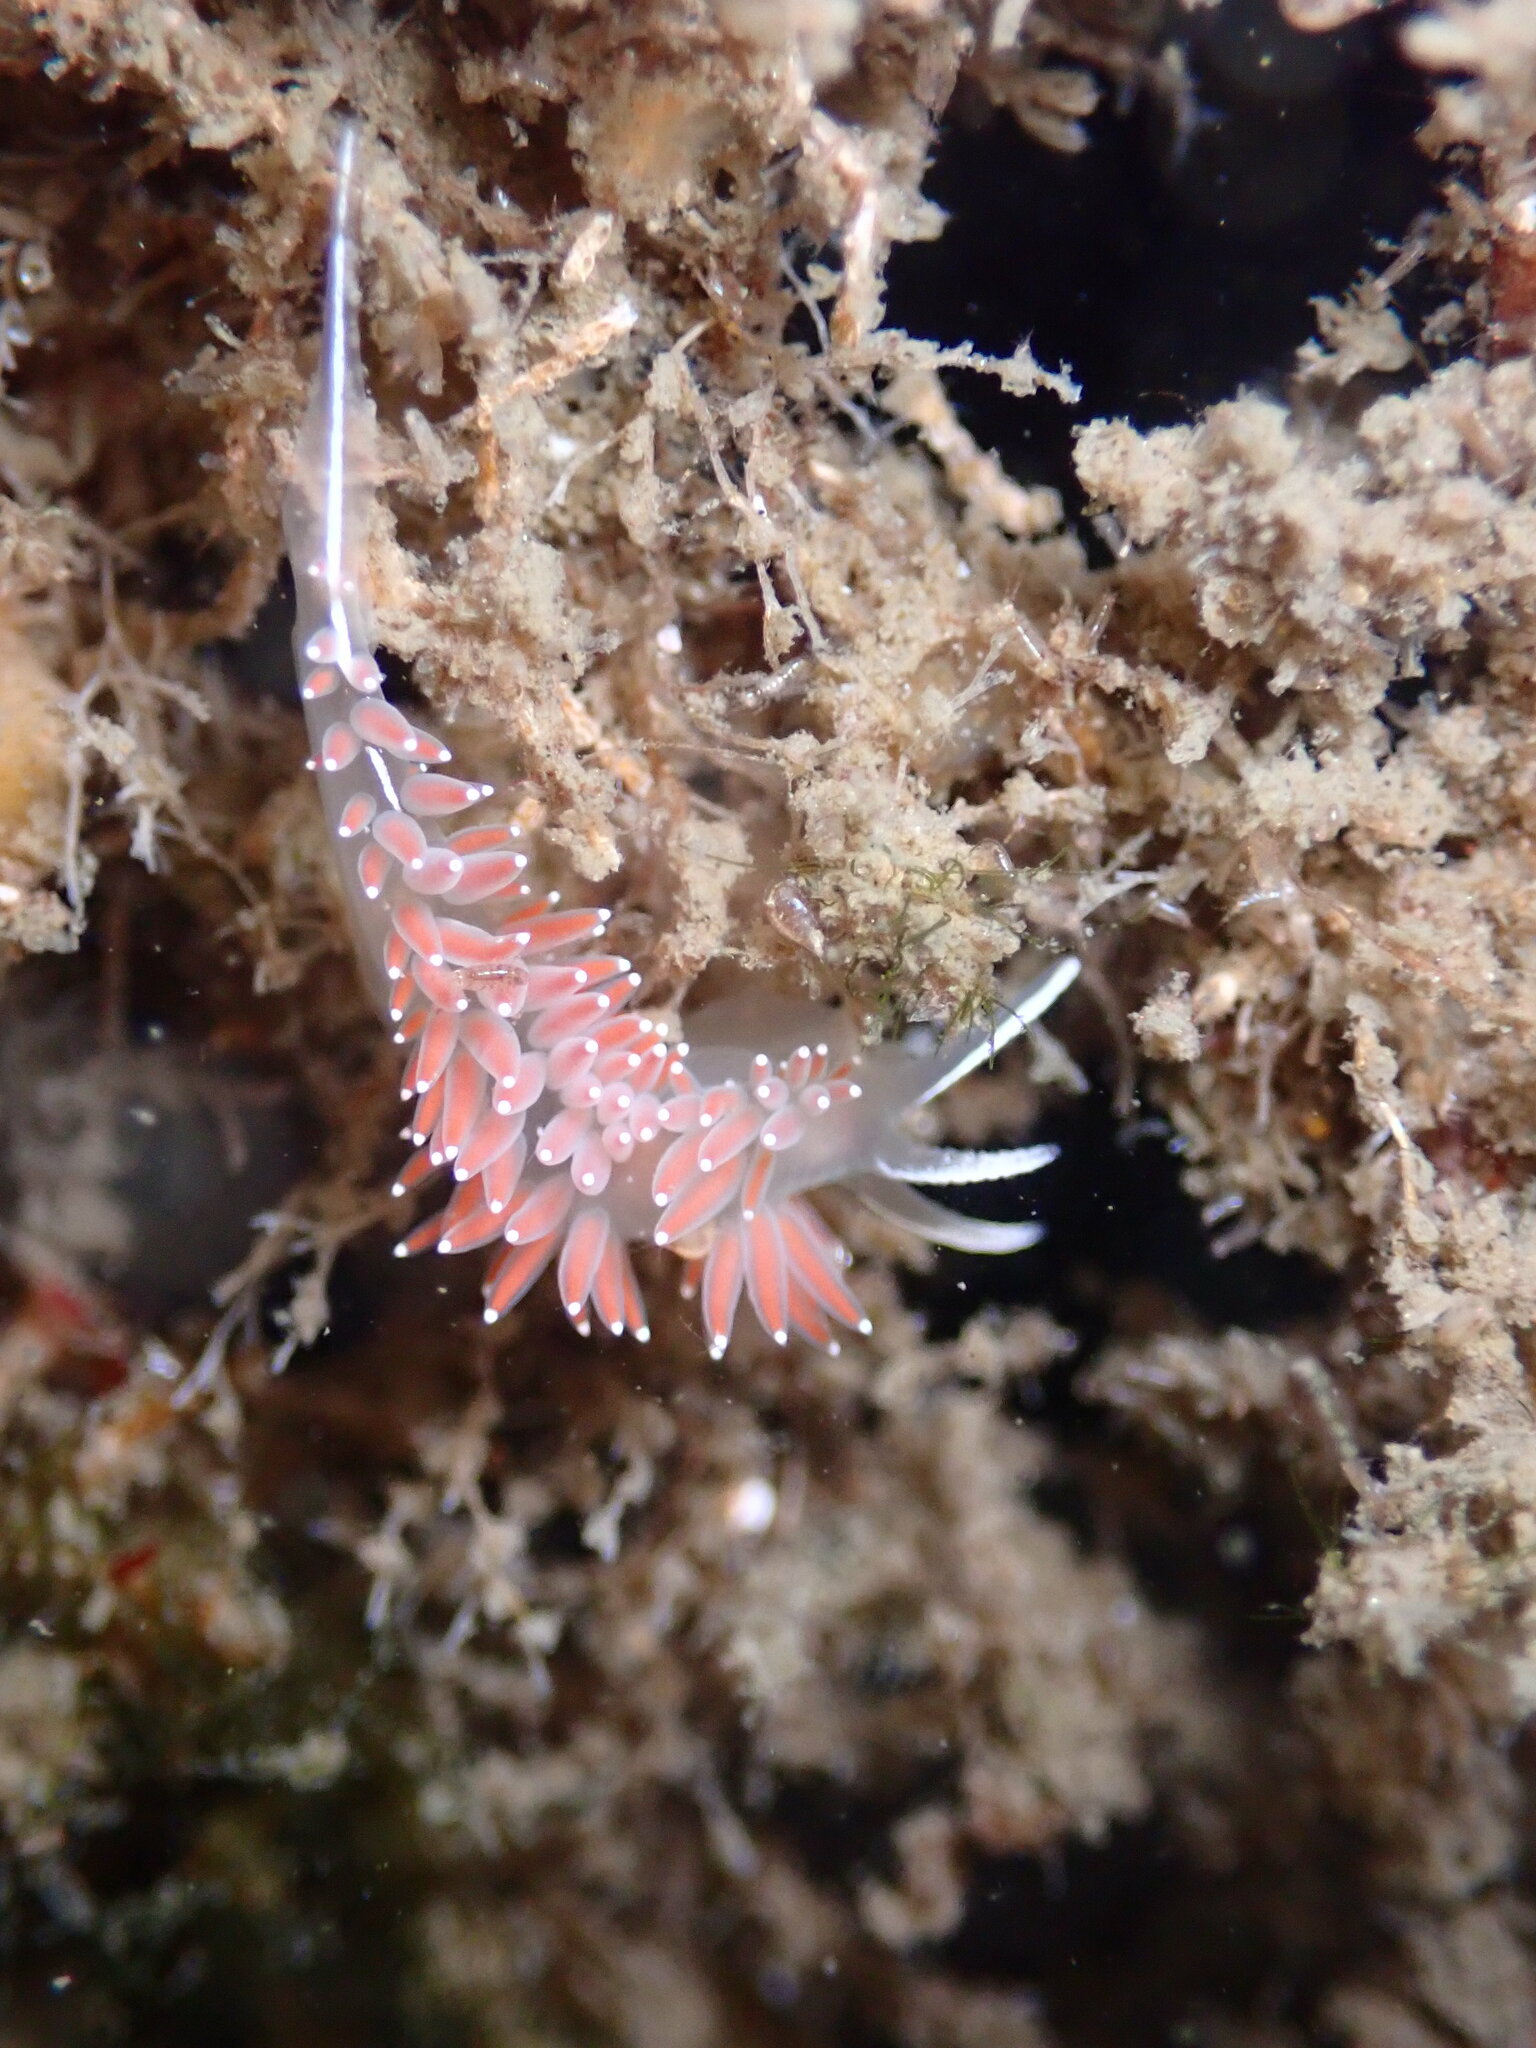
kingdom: Animalia
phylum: Mollusca
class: Gastropoda
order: Nudibranchia
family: Coryphellidae
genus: Coryphella
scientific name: Coryphella verrucosa
